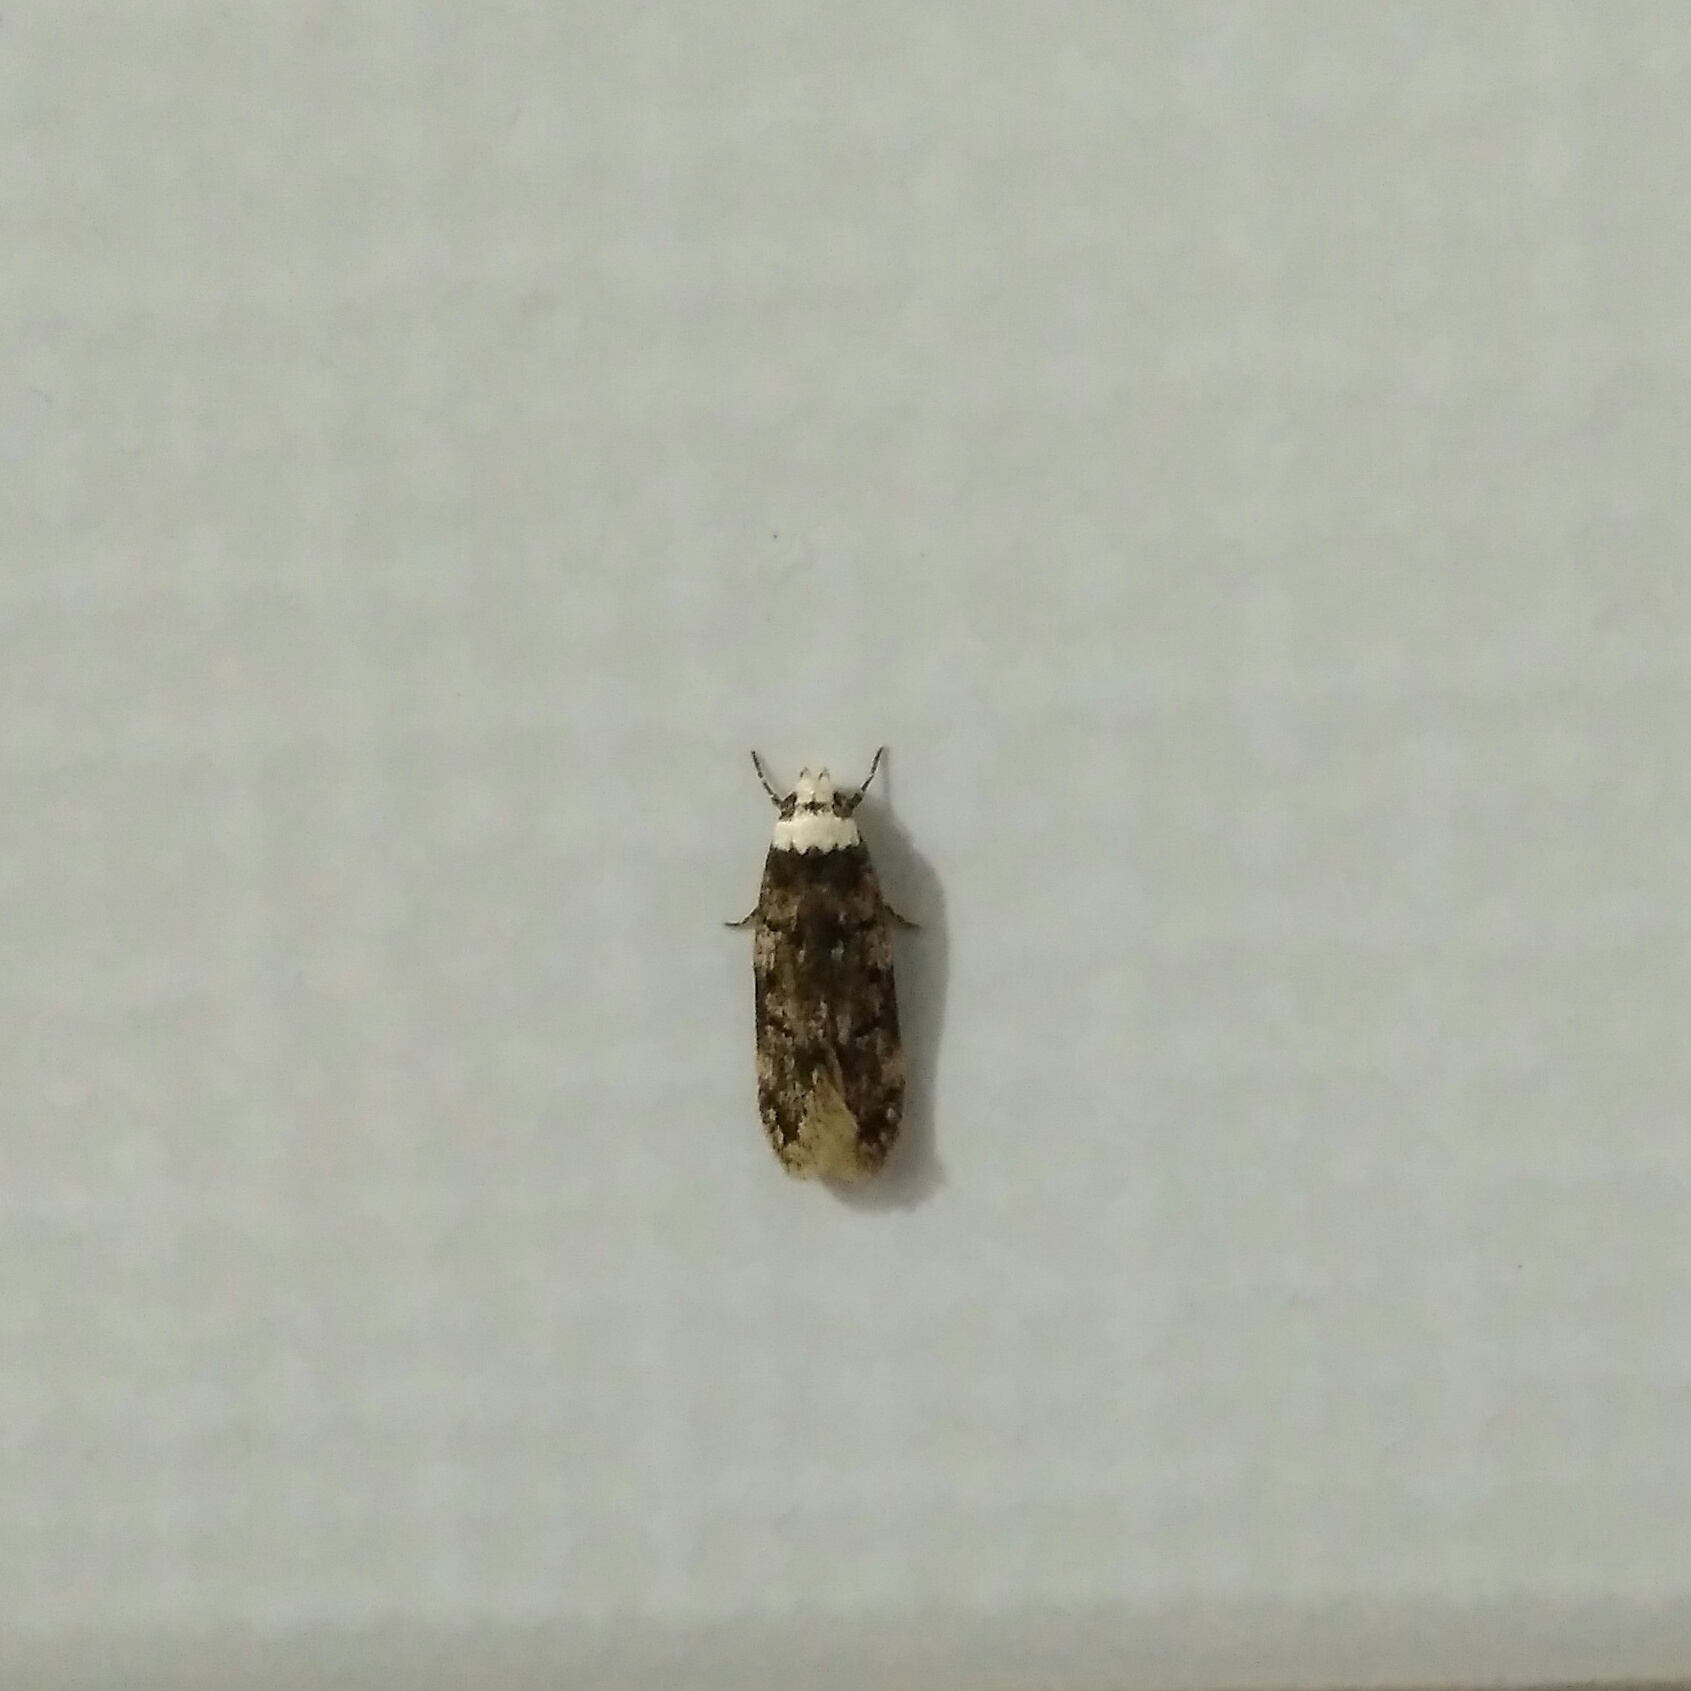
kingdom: Animalia
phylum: Arthropoda
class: Insecta
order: Lepidoptera
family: Oecophoridae
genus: Endrosis
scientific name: Endrosis sarcitrella
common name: White-shouldered house moth
